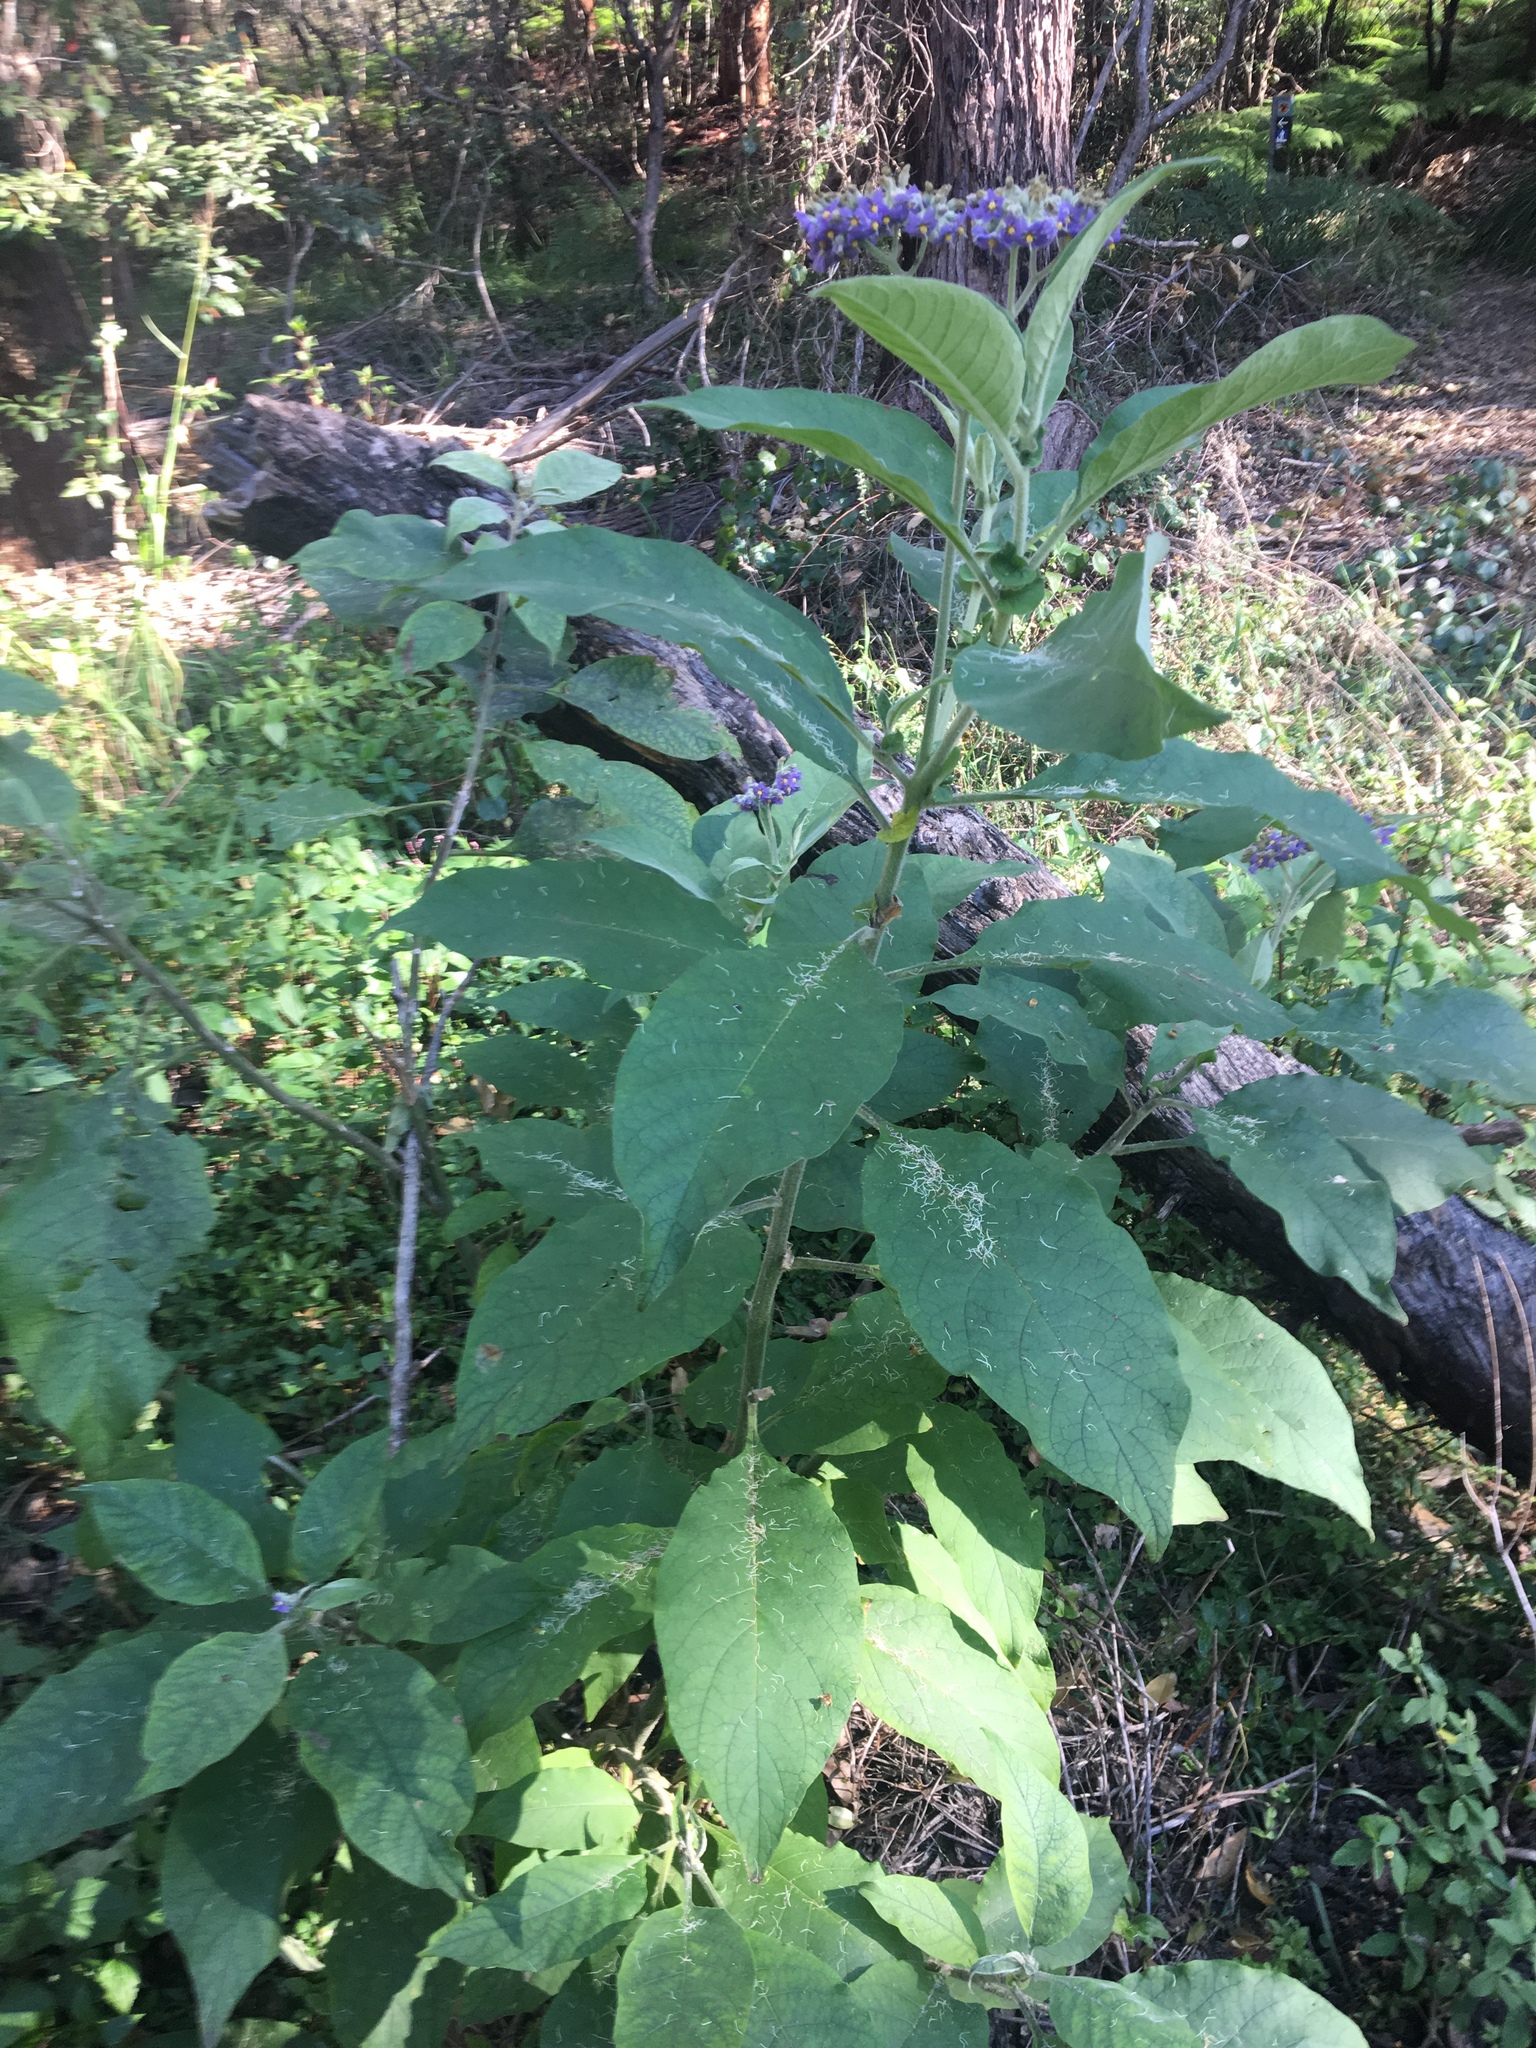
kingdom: Plantae
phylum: Tracheophyta
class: Magnoliopsida
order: Solanales
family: Solanaceae
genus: Solanum
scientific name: Solanum mauritianum
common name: Earleaf nightshade
